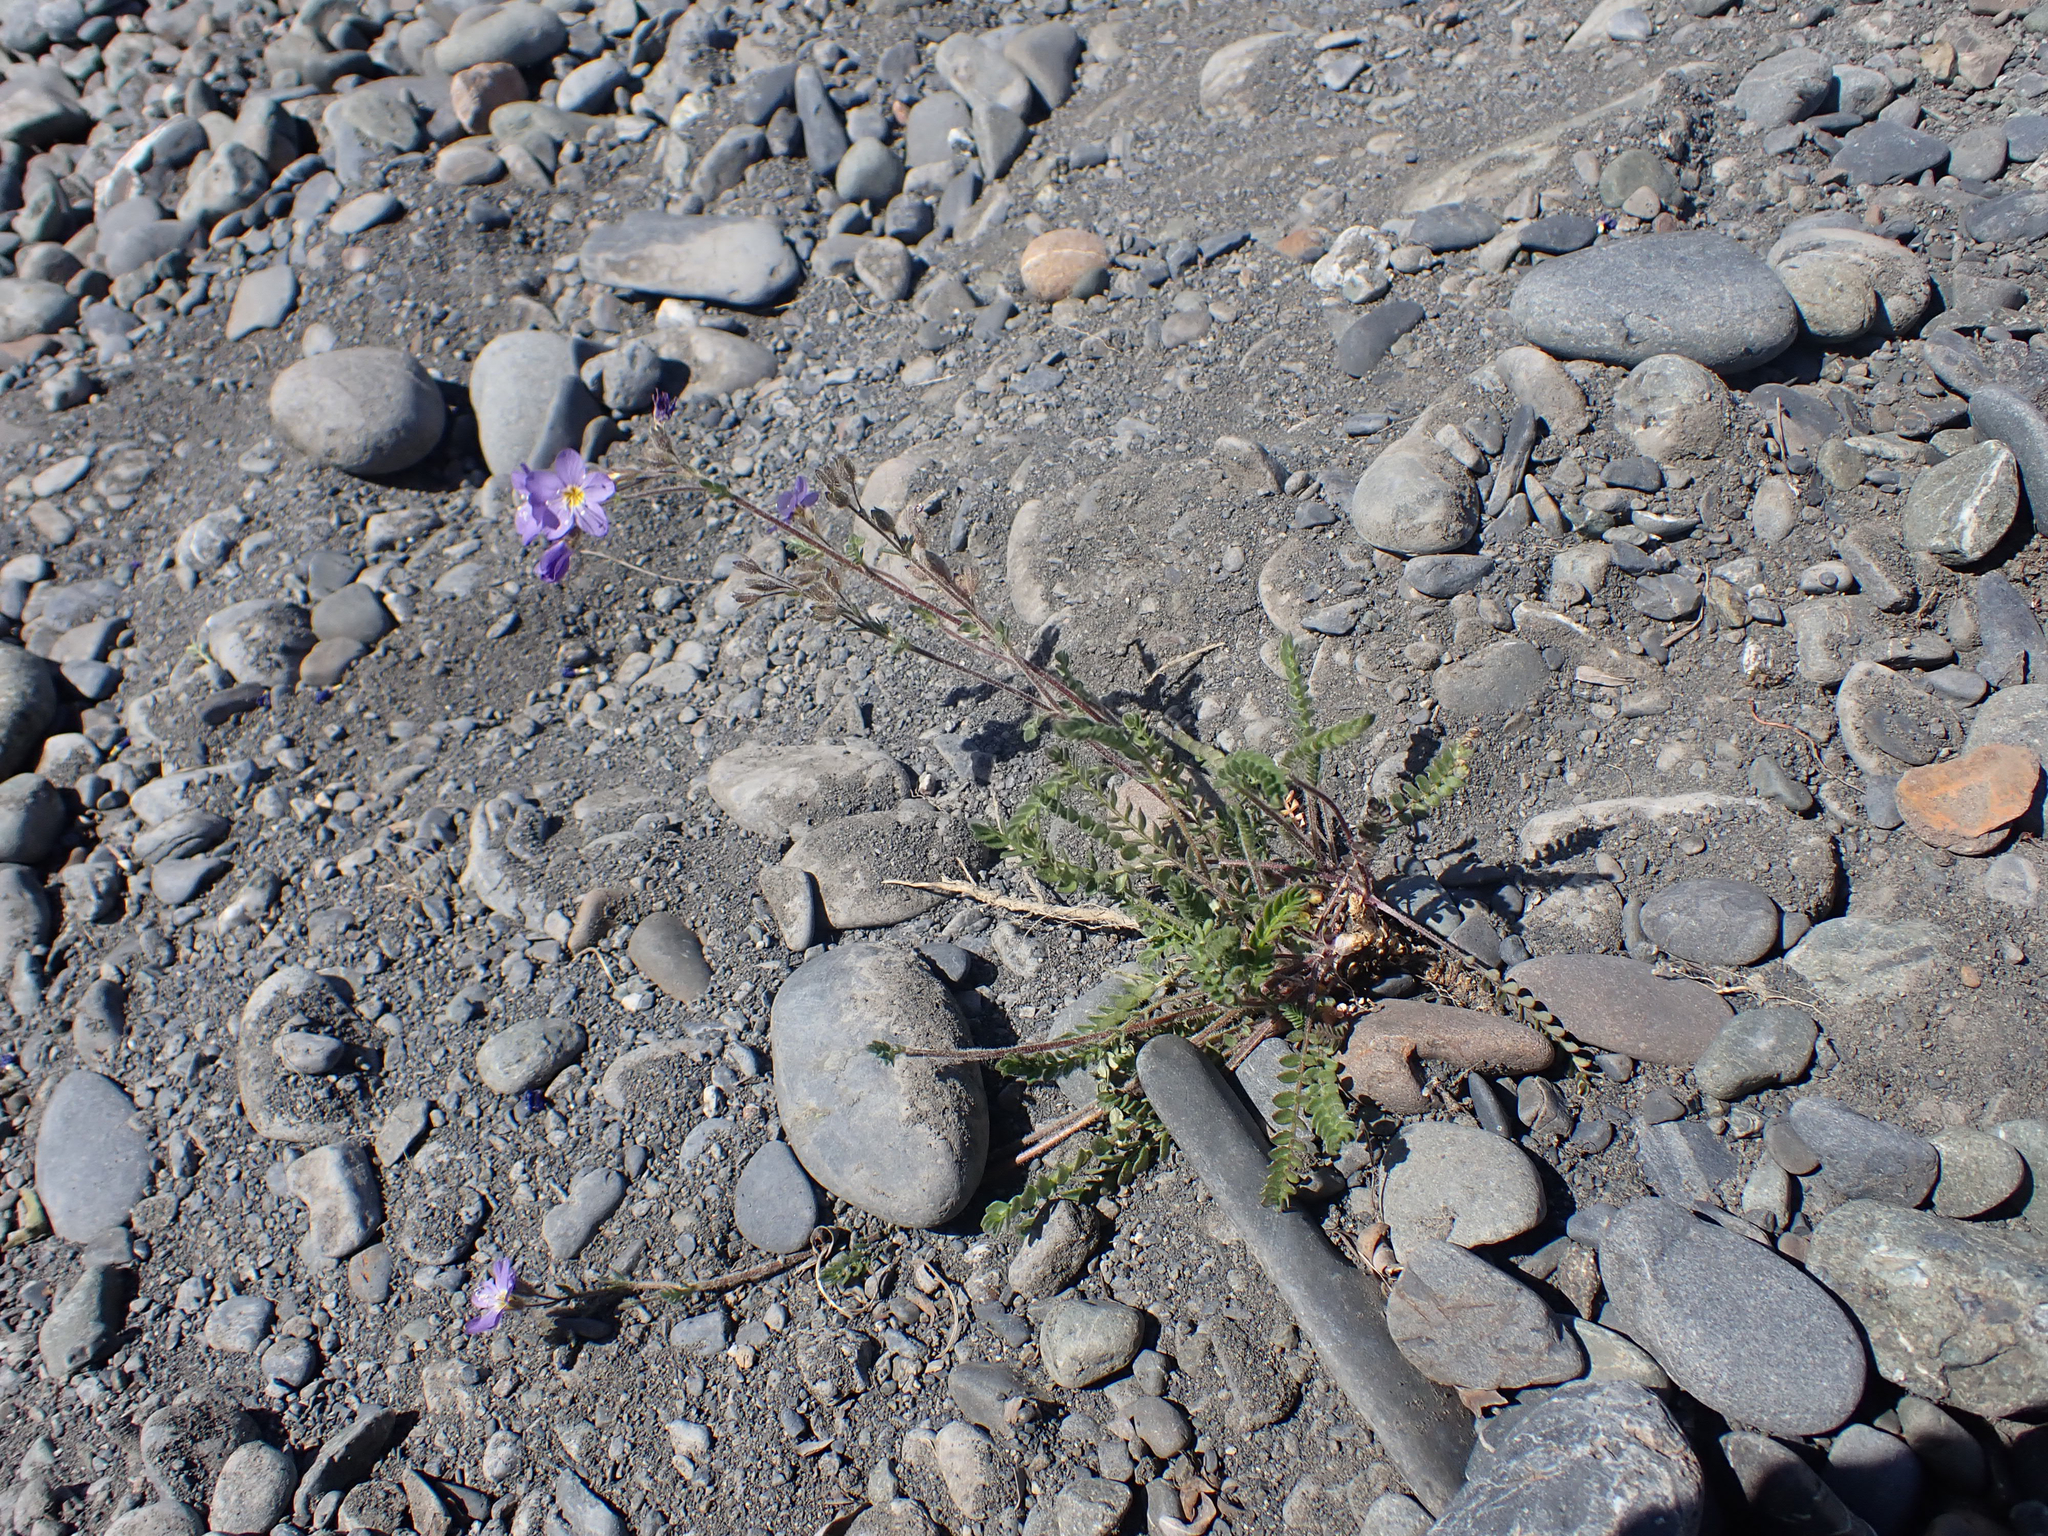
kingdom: Plantae
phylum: Tracheophyta
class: Magnoliopsida
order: Ericales
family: Polemoniaceae
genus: Polemonium
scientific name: Polemonium pulcherrimum
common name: Short jacob's-ladder
